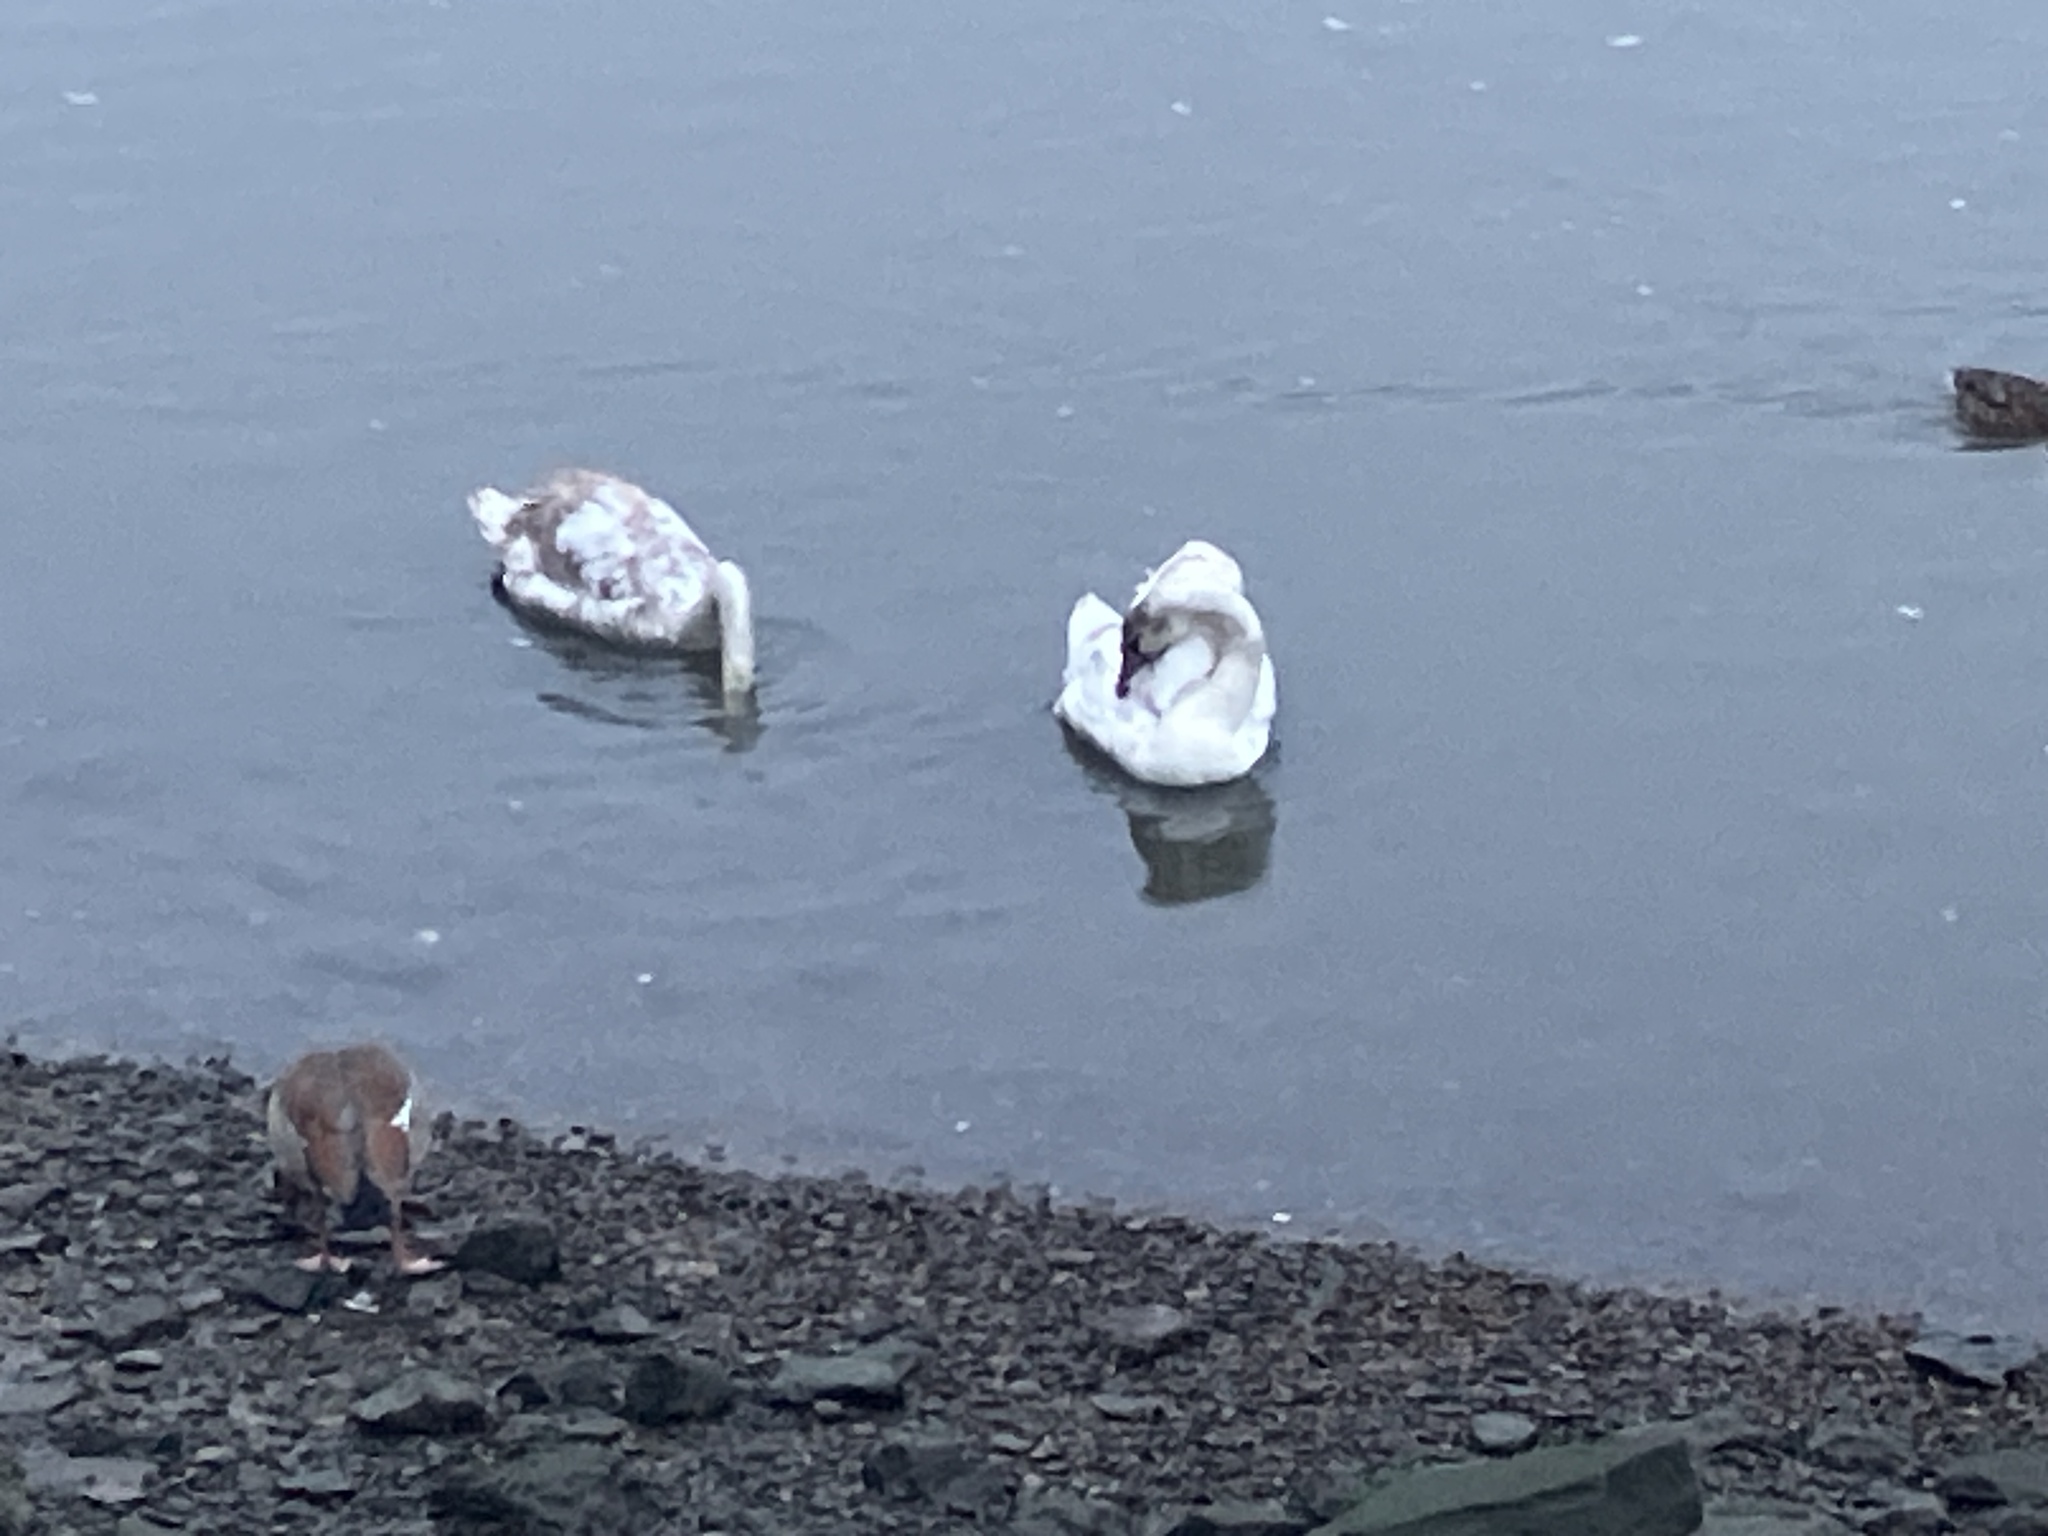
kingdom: Animalia
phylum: Chordata
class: Aves
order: Anseriformes
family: Anatidae
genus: Cygnus
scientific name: Cygnus olor
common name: Mute swan
